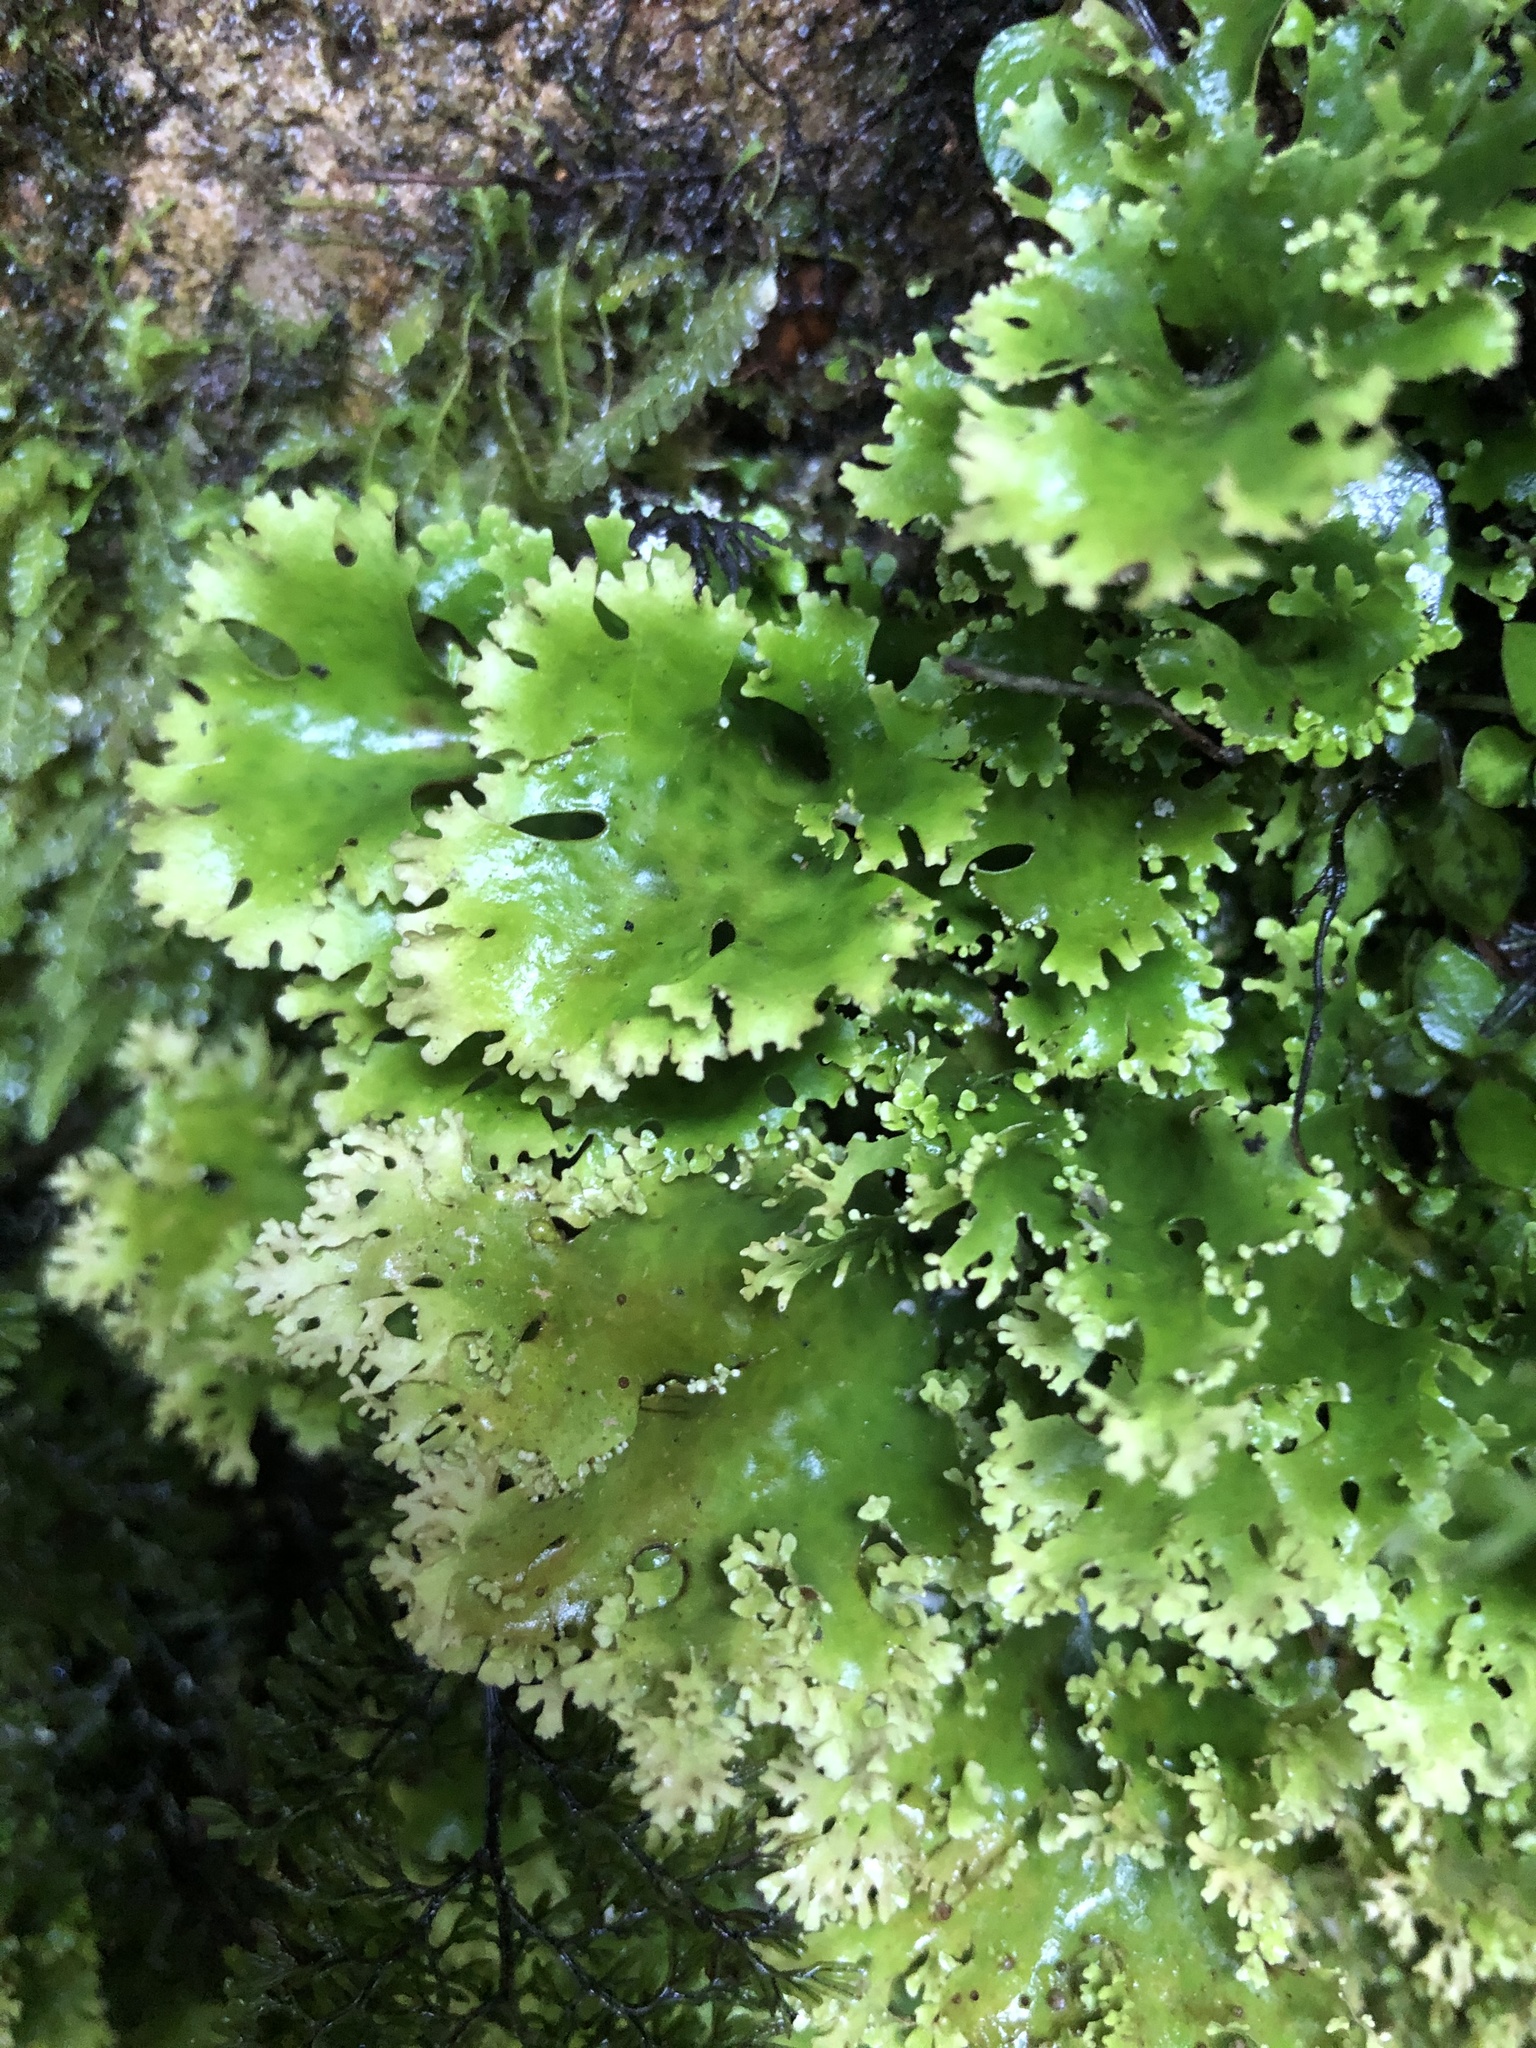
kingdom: Fungi
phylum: Ascomycota
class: Lecanoromycetes
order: Peltigerales
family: Lobariaceae
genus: Sticta
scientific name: Sticta filix
